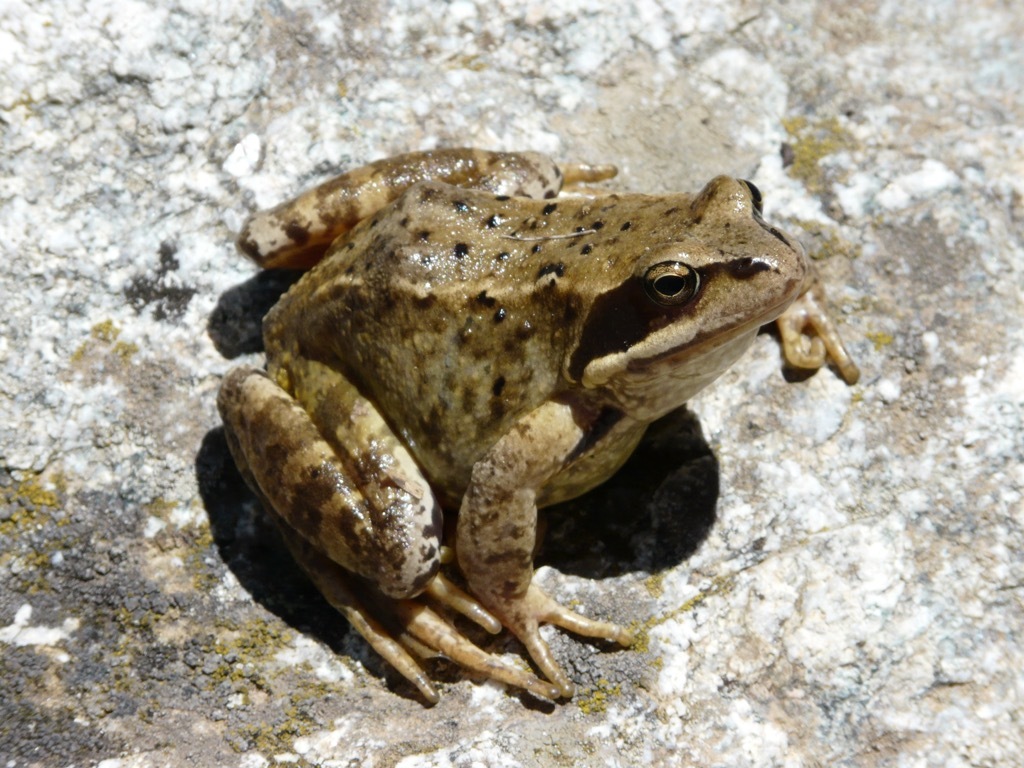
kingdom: Animalia
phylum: Chordata
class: Amphibia
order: Anura
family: Ranidae
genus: Rana
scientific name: Rana temporaria
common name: Common frog
